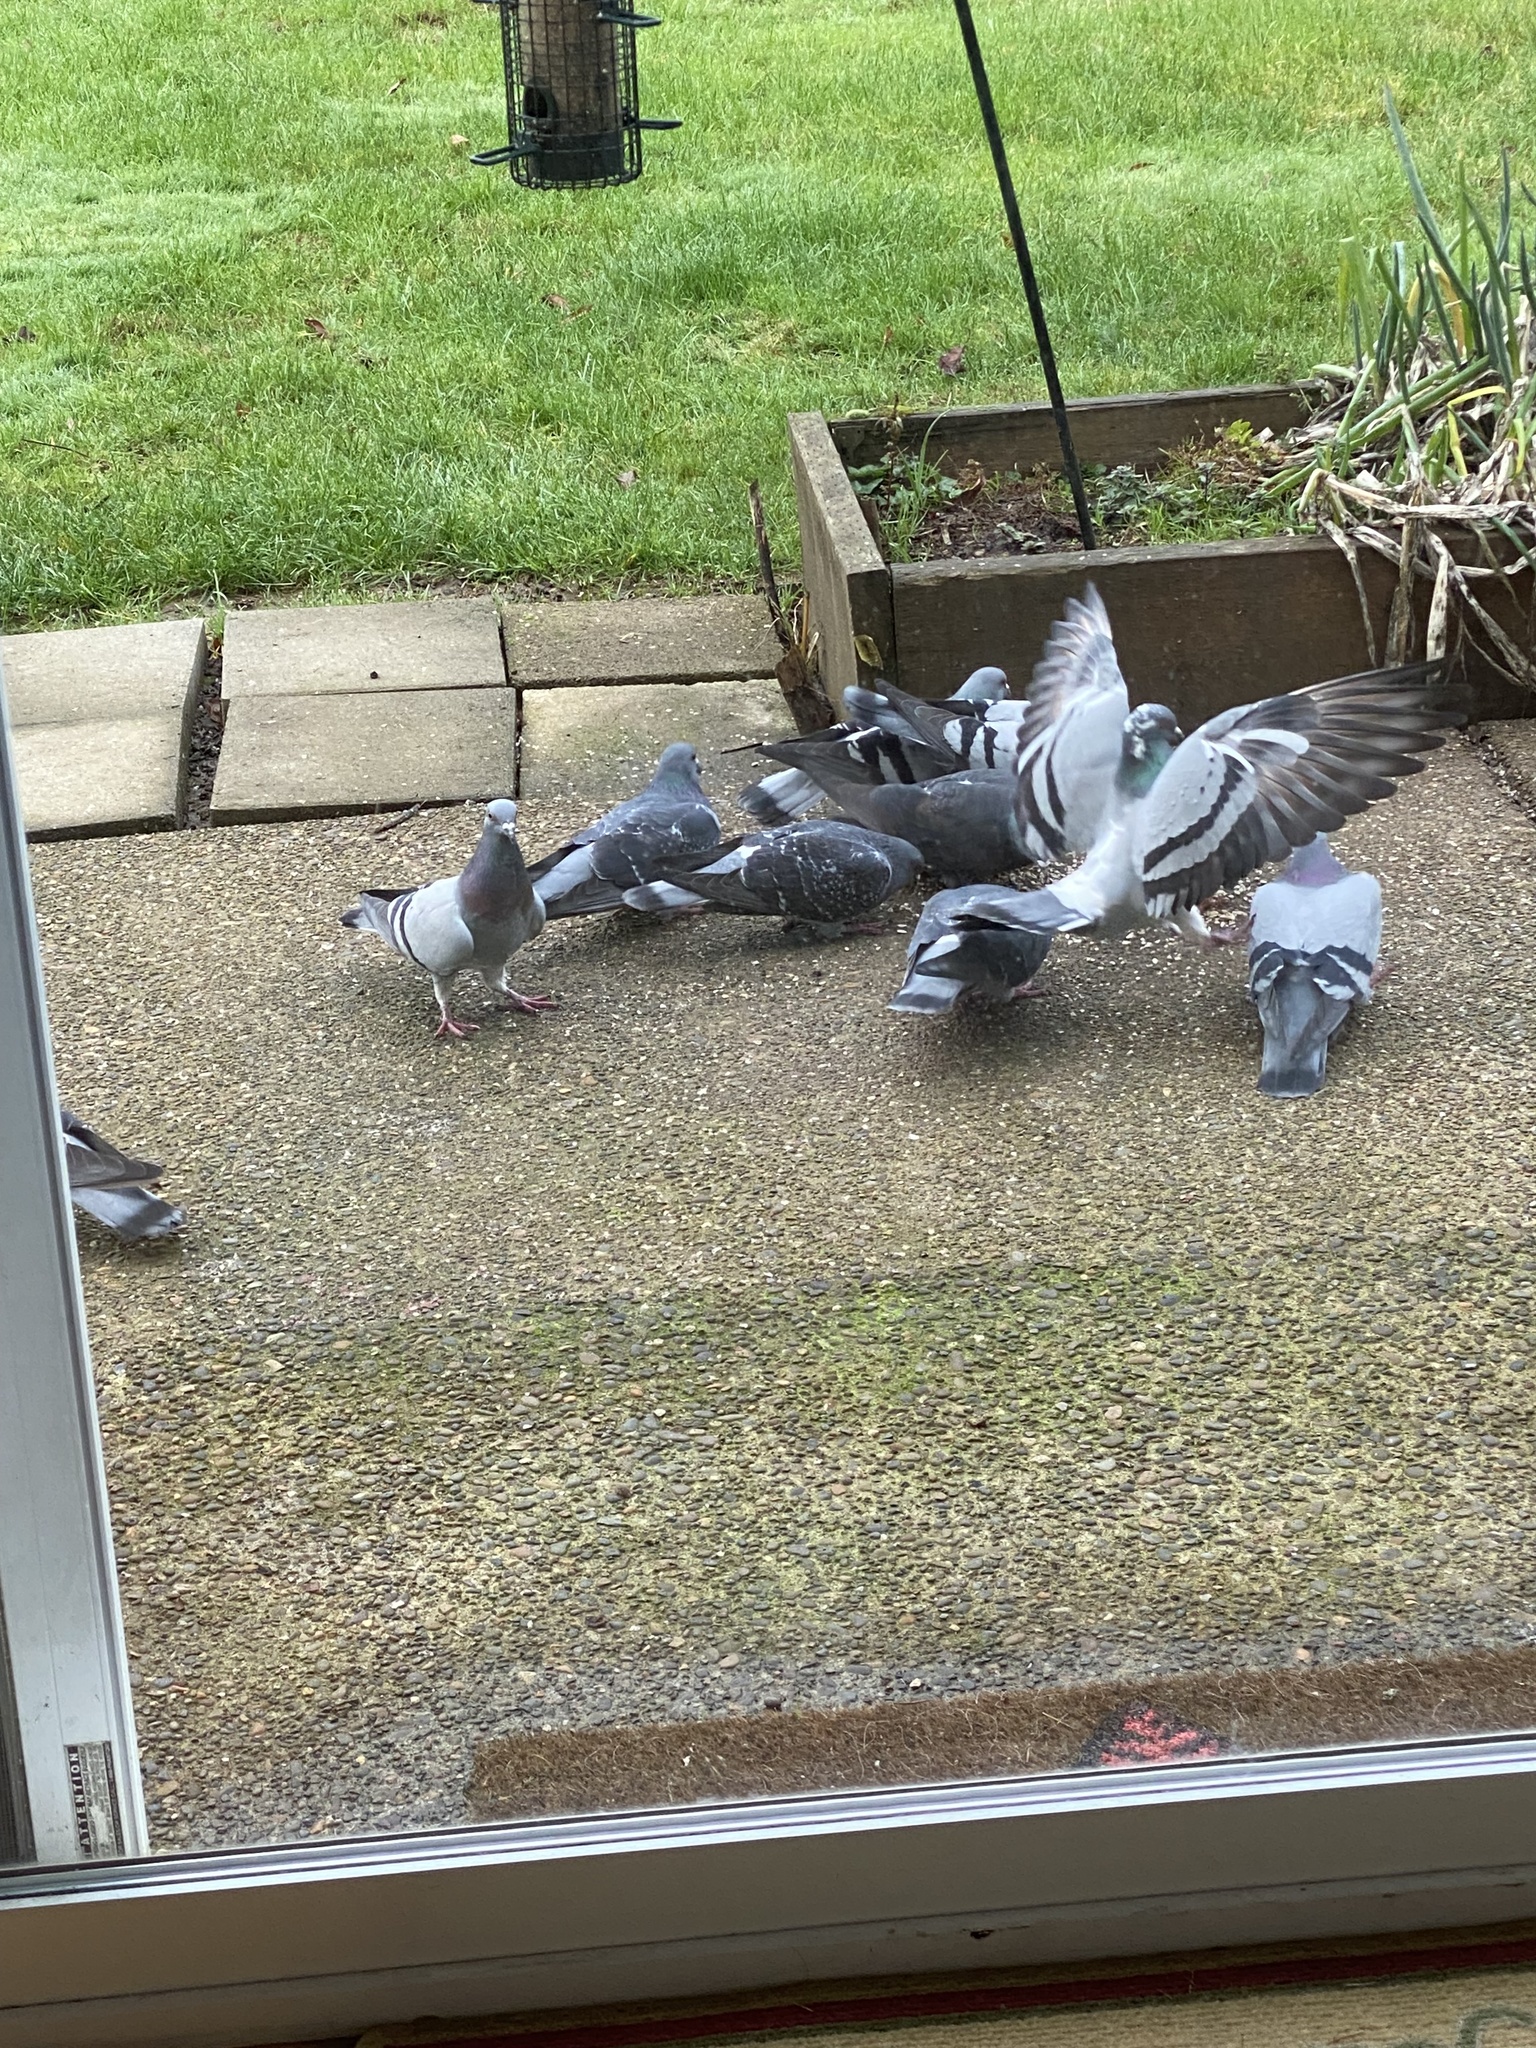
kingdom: Animalia
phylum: Chordata
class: Aves
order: Columbiformes
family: Columbidae
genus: Columba
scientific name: Columba livia
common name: Rock pigeon
